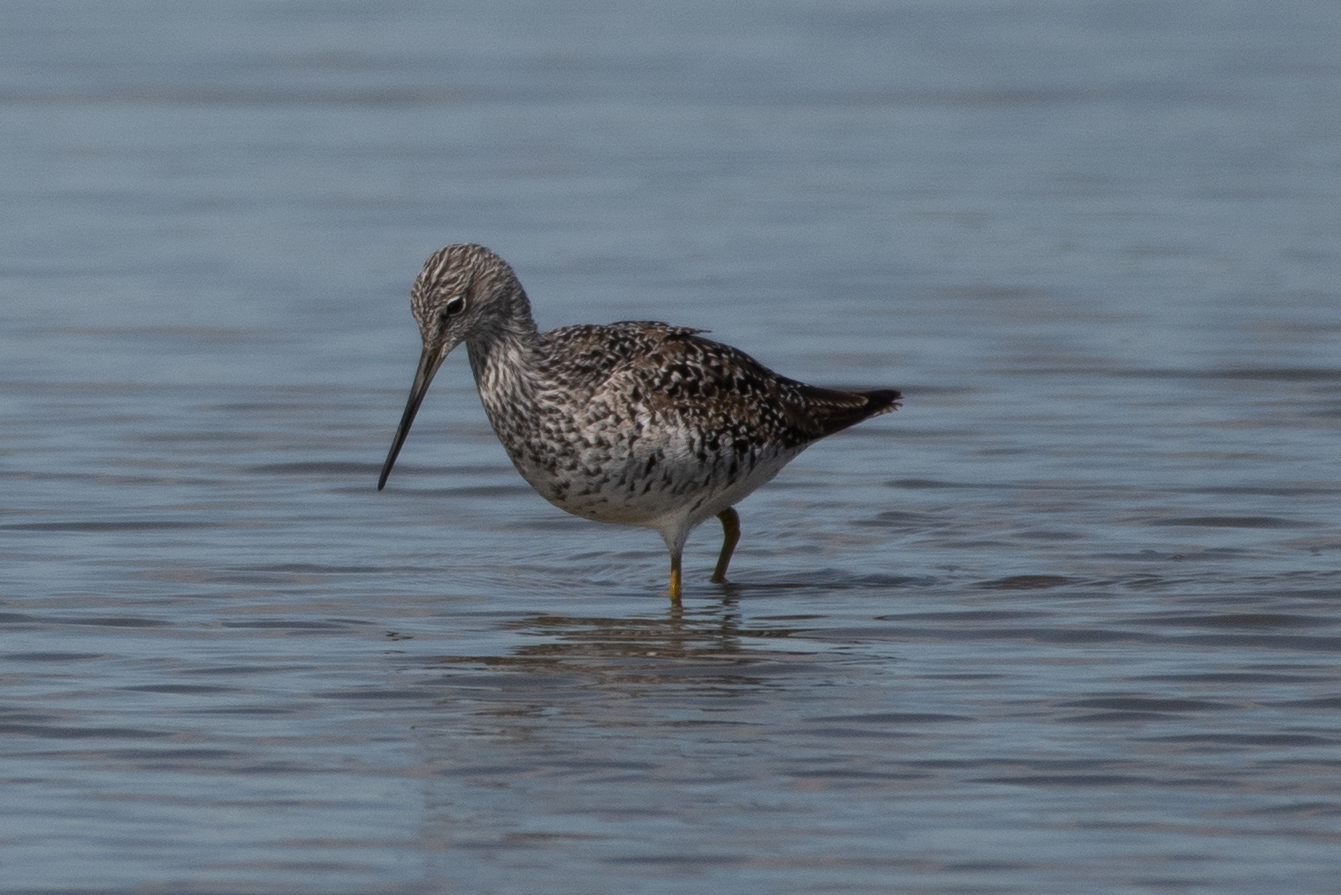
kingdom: Animalia
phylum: Chordata
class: Aves
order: Charadriiformes
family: Scolopacidae
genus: Tringa
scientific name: Tringa melanoleuca
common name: Greater yellowlegs
